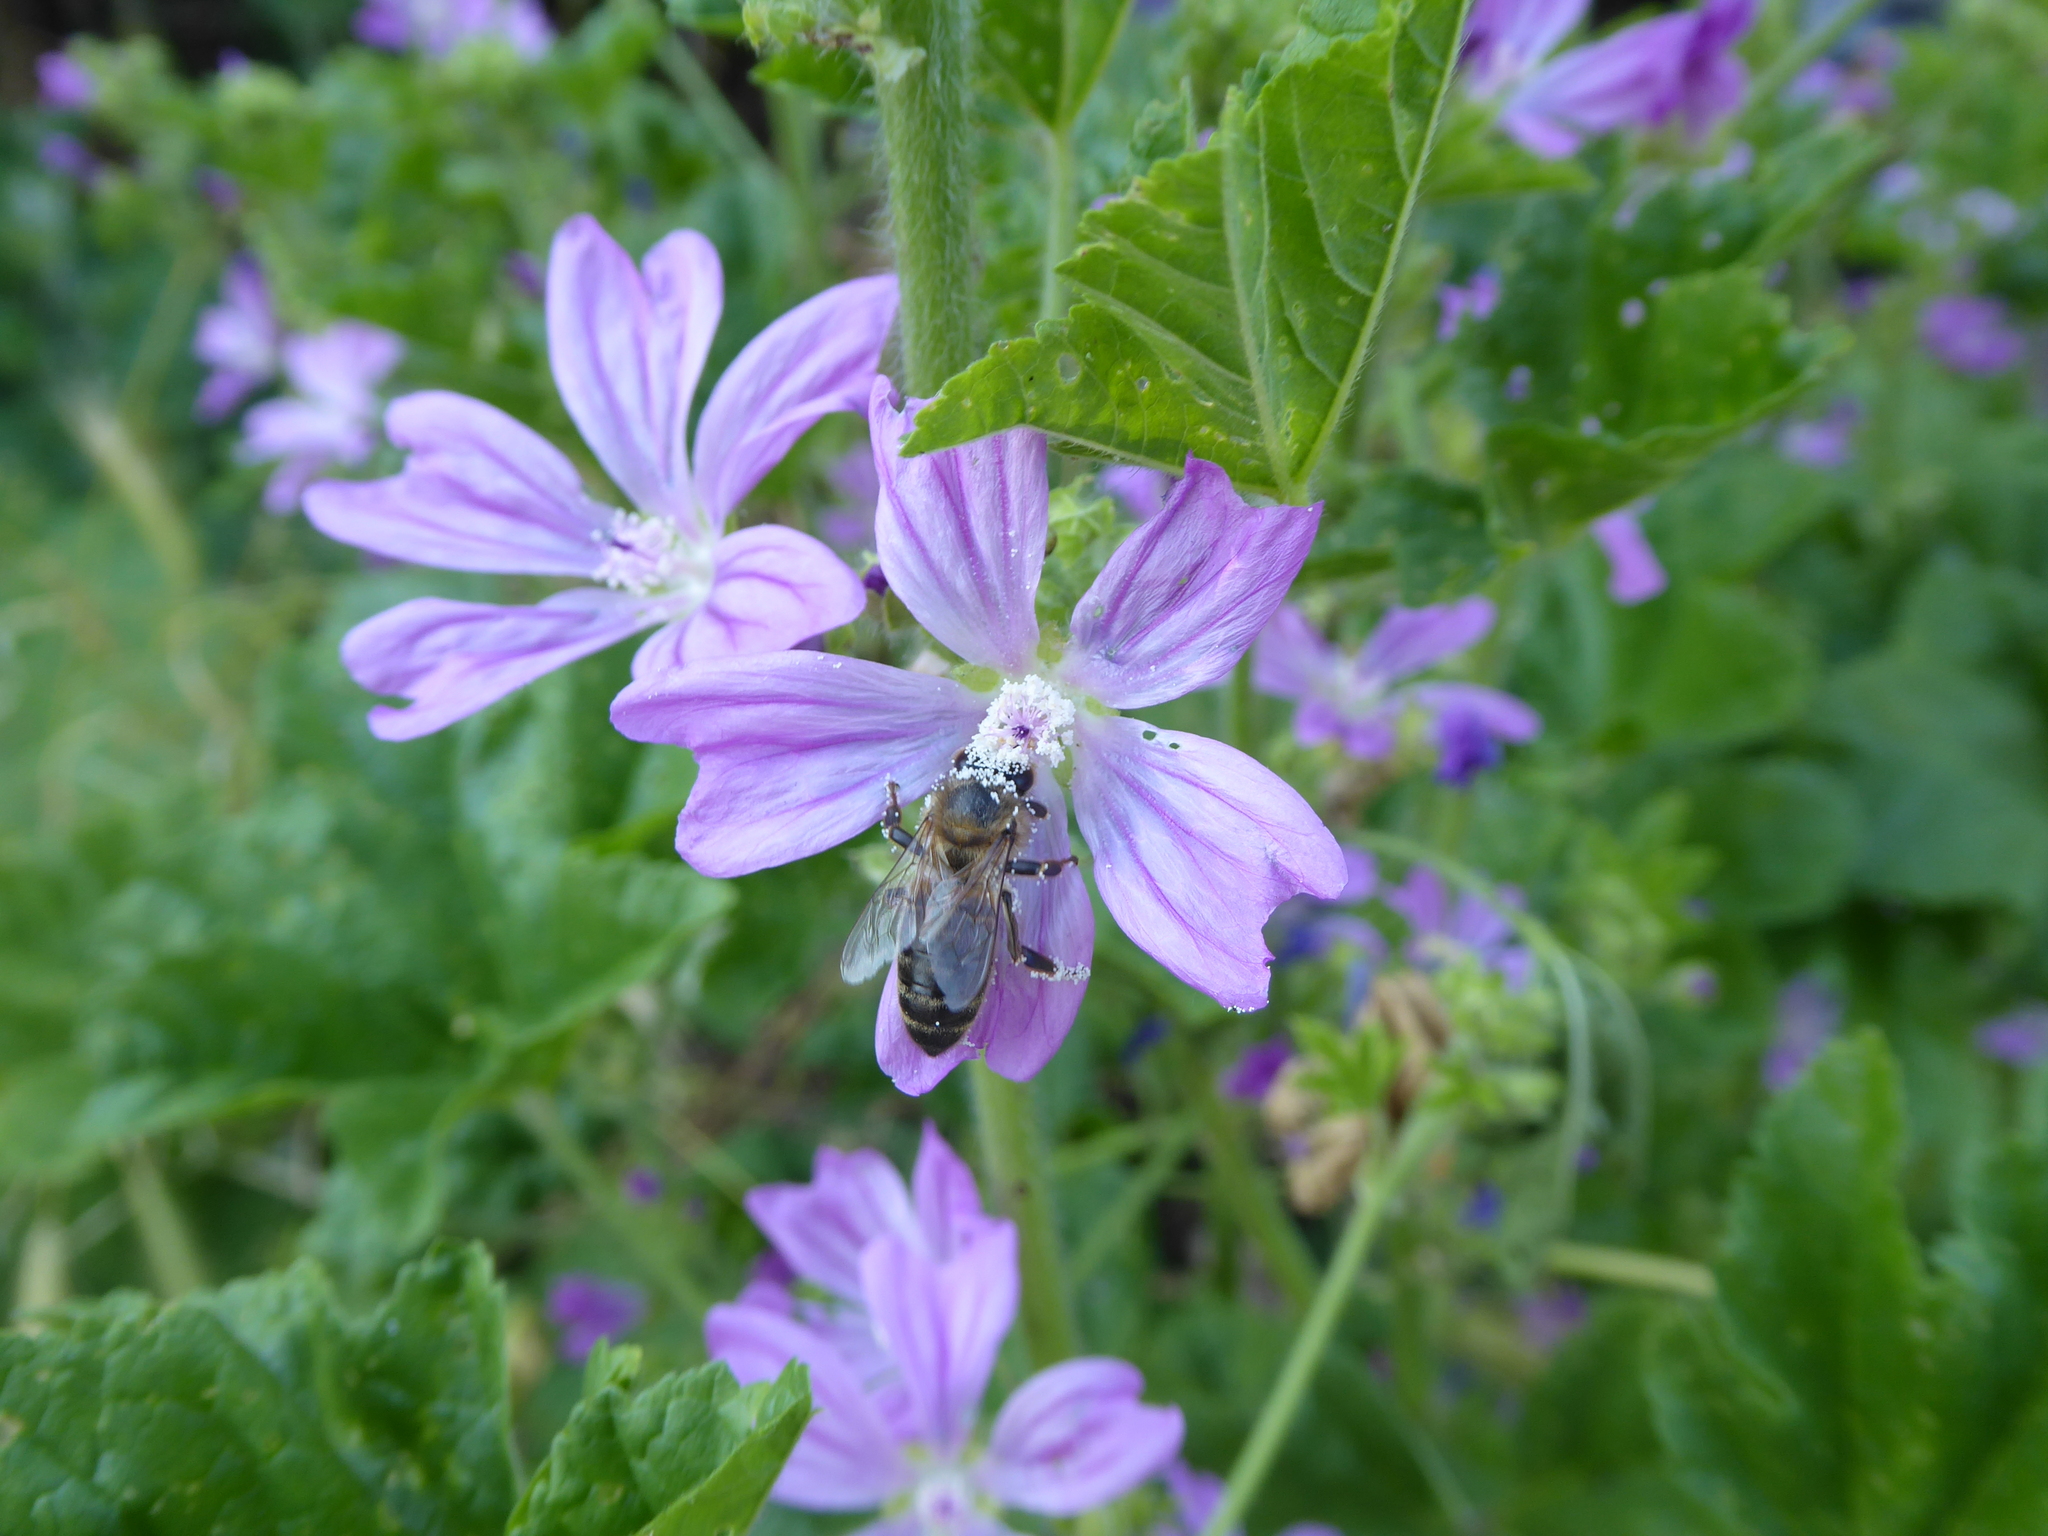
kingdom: Animalia
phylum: Arthropoda
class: Insecta
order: Hymenoptera
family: Apidae
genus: Apis
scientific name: Apis mellifera
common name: Honey bee
